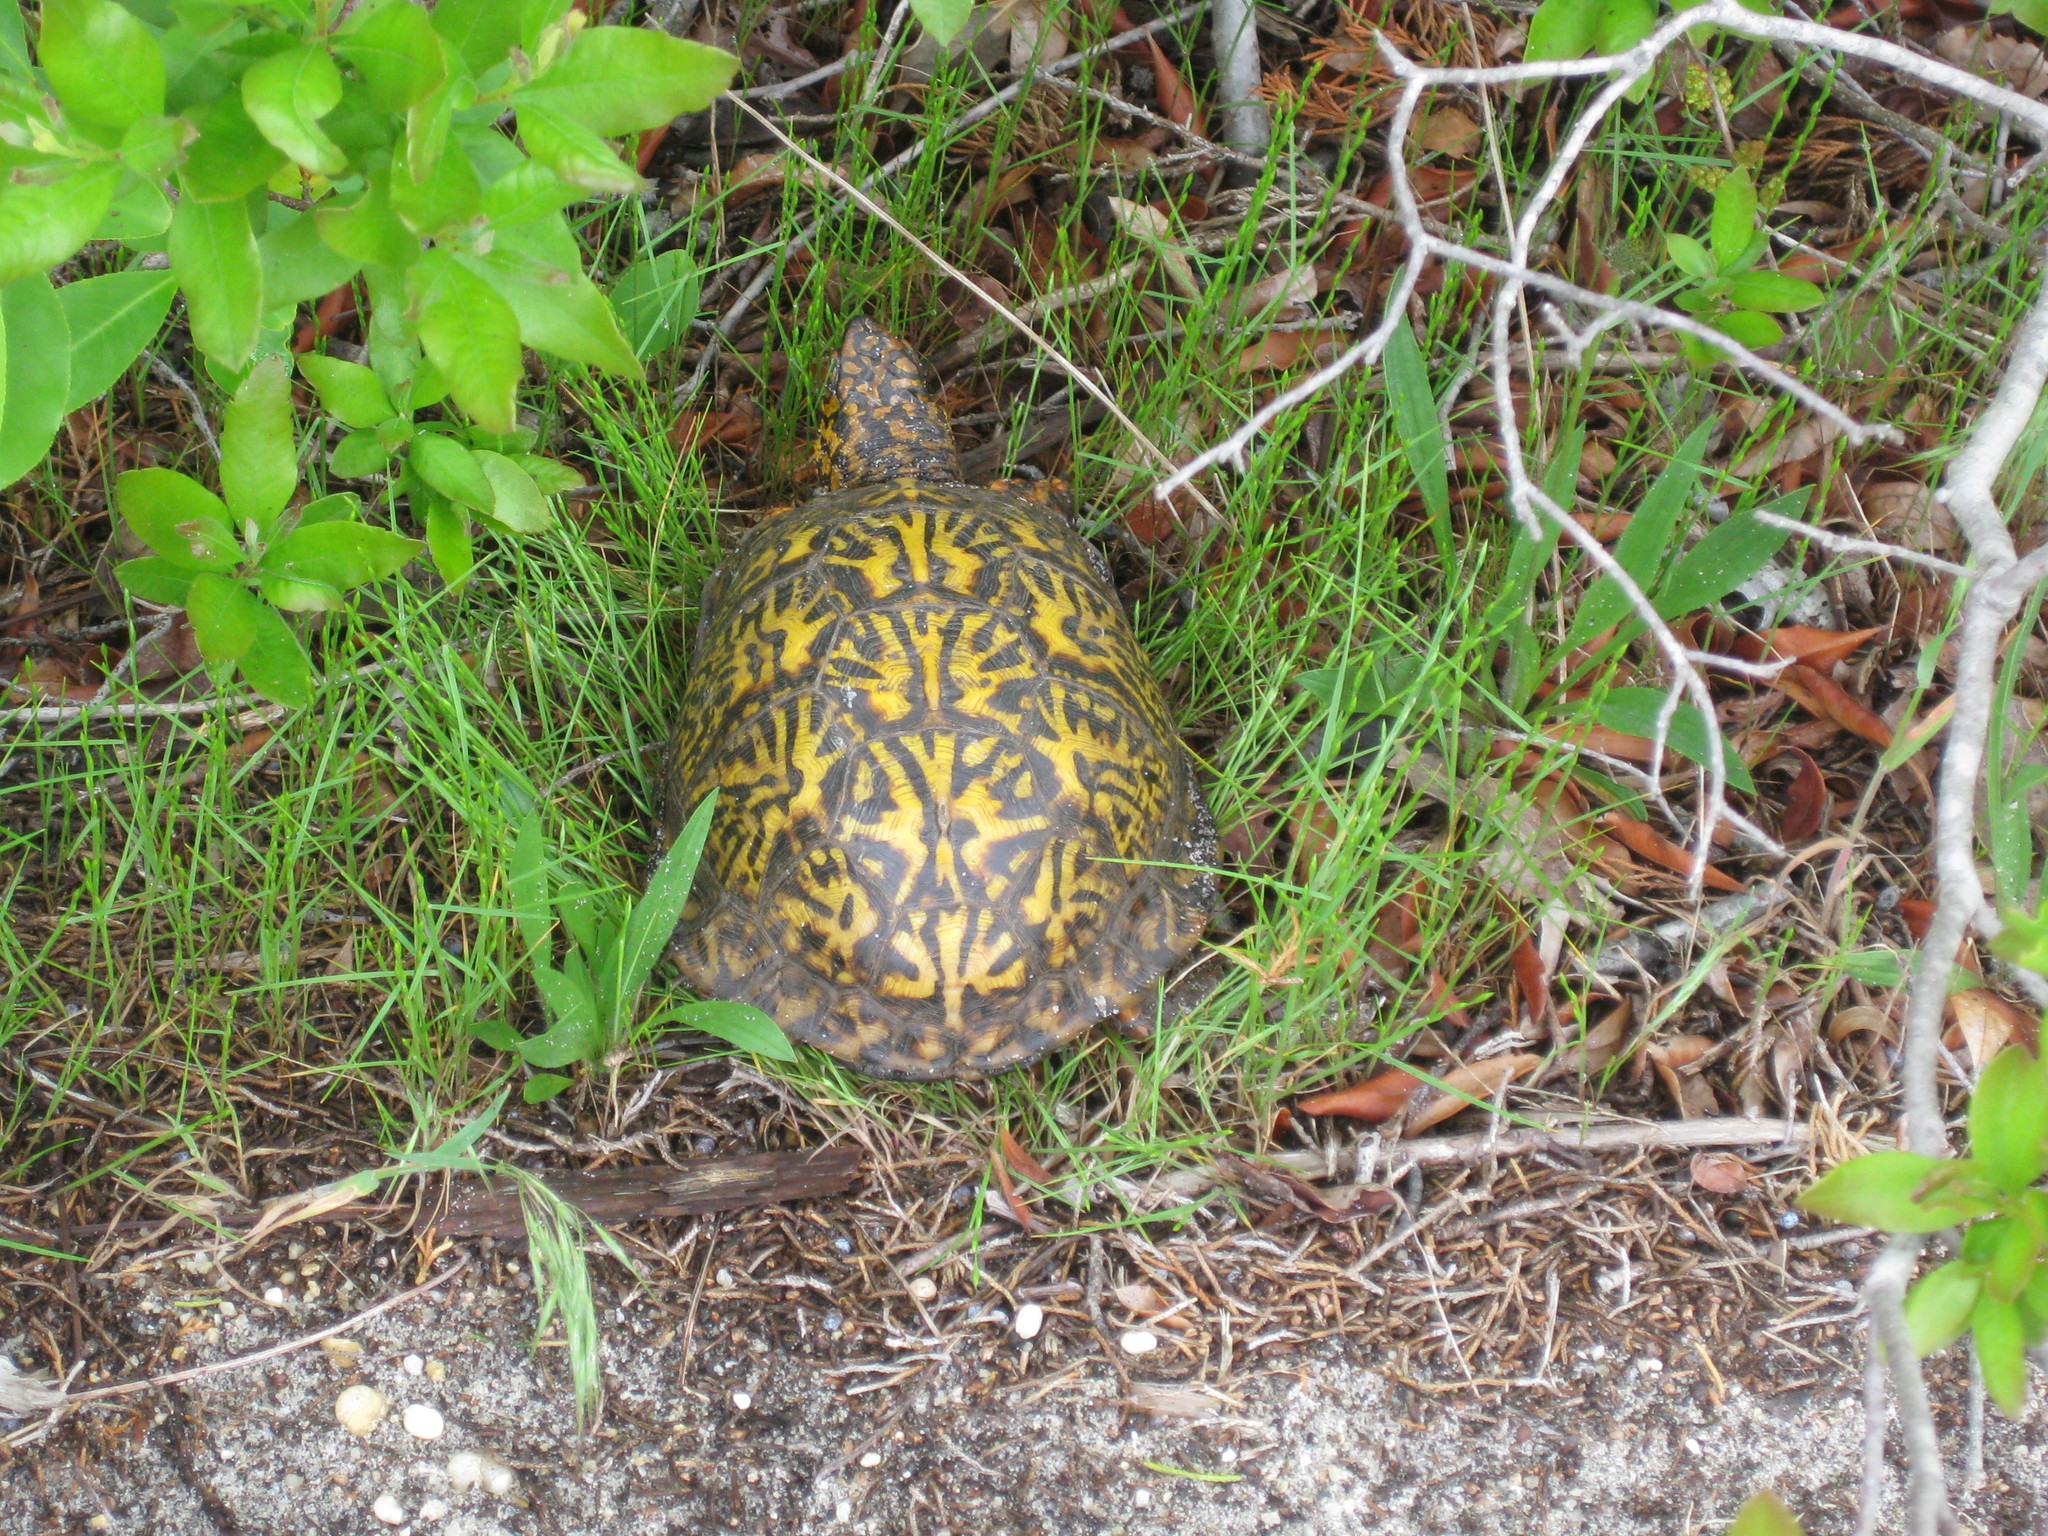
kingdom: Animalia
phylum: Chordata
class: Testudines
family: Emydidae
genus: Terrapene
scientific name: Terrapene carolina
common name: Common box turtle
